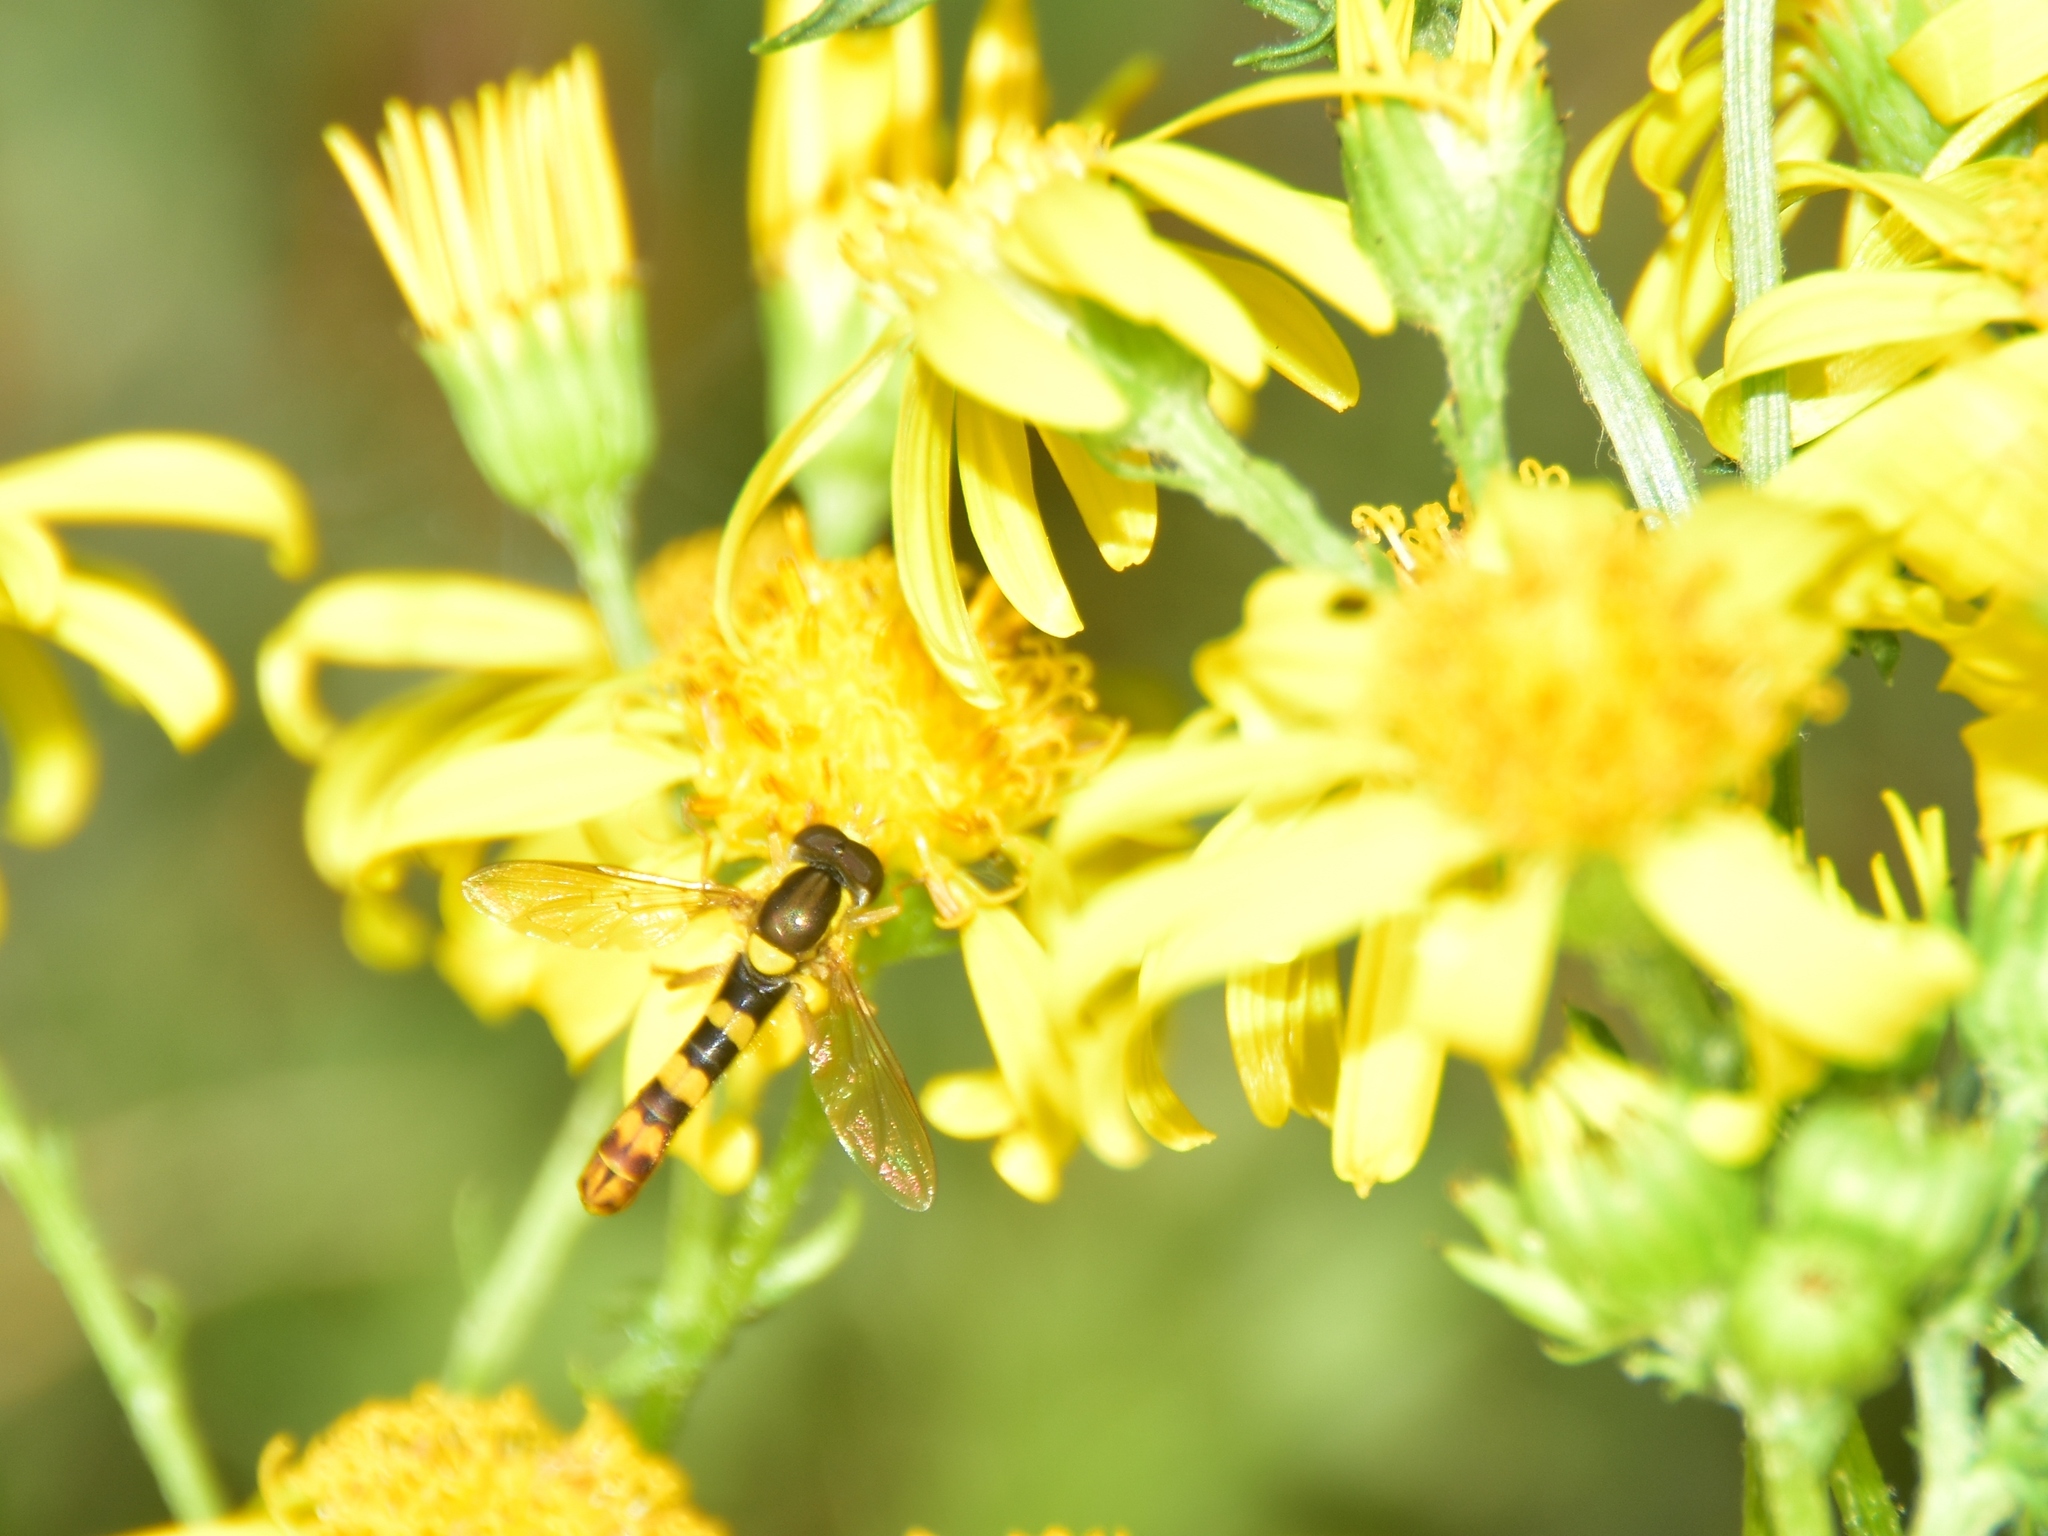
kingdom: Animalia
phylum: Arthropoda
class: Insecta
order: Diptera
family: Syrphidae
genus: Sphaerophoria
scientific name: Sphaerophoria scripta
